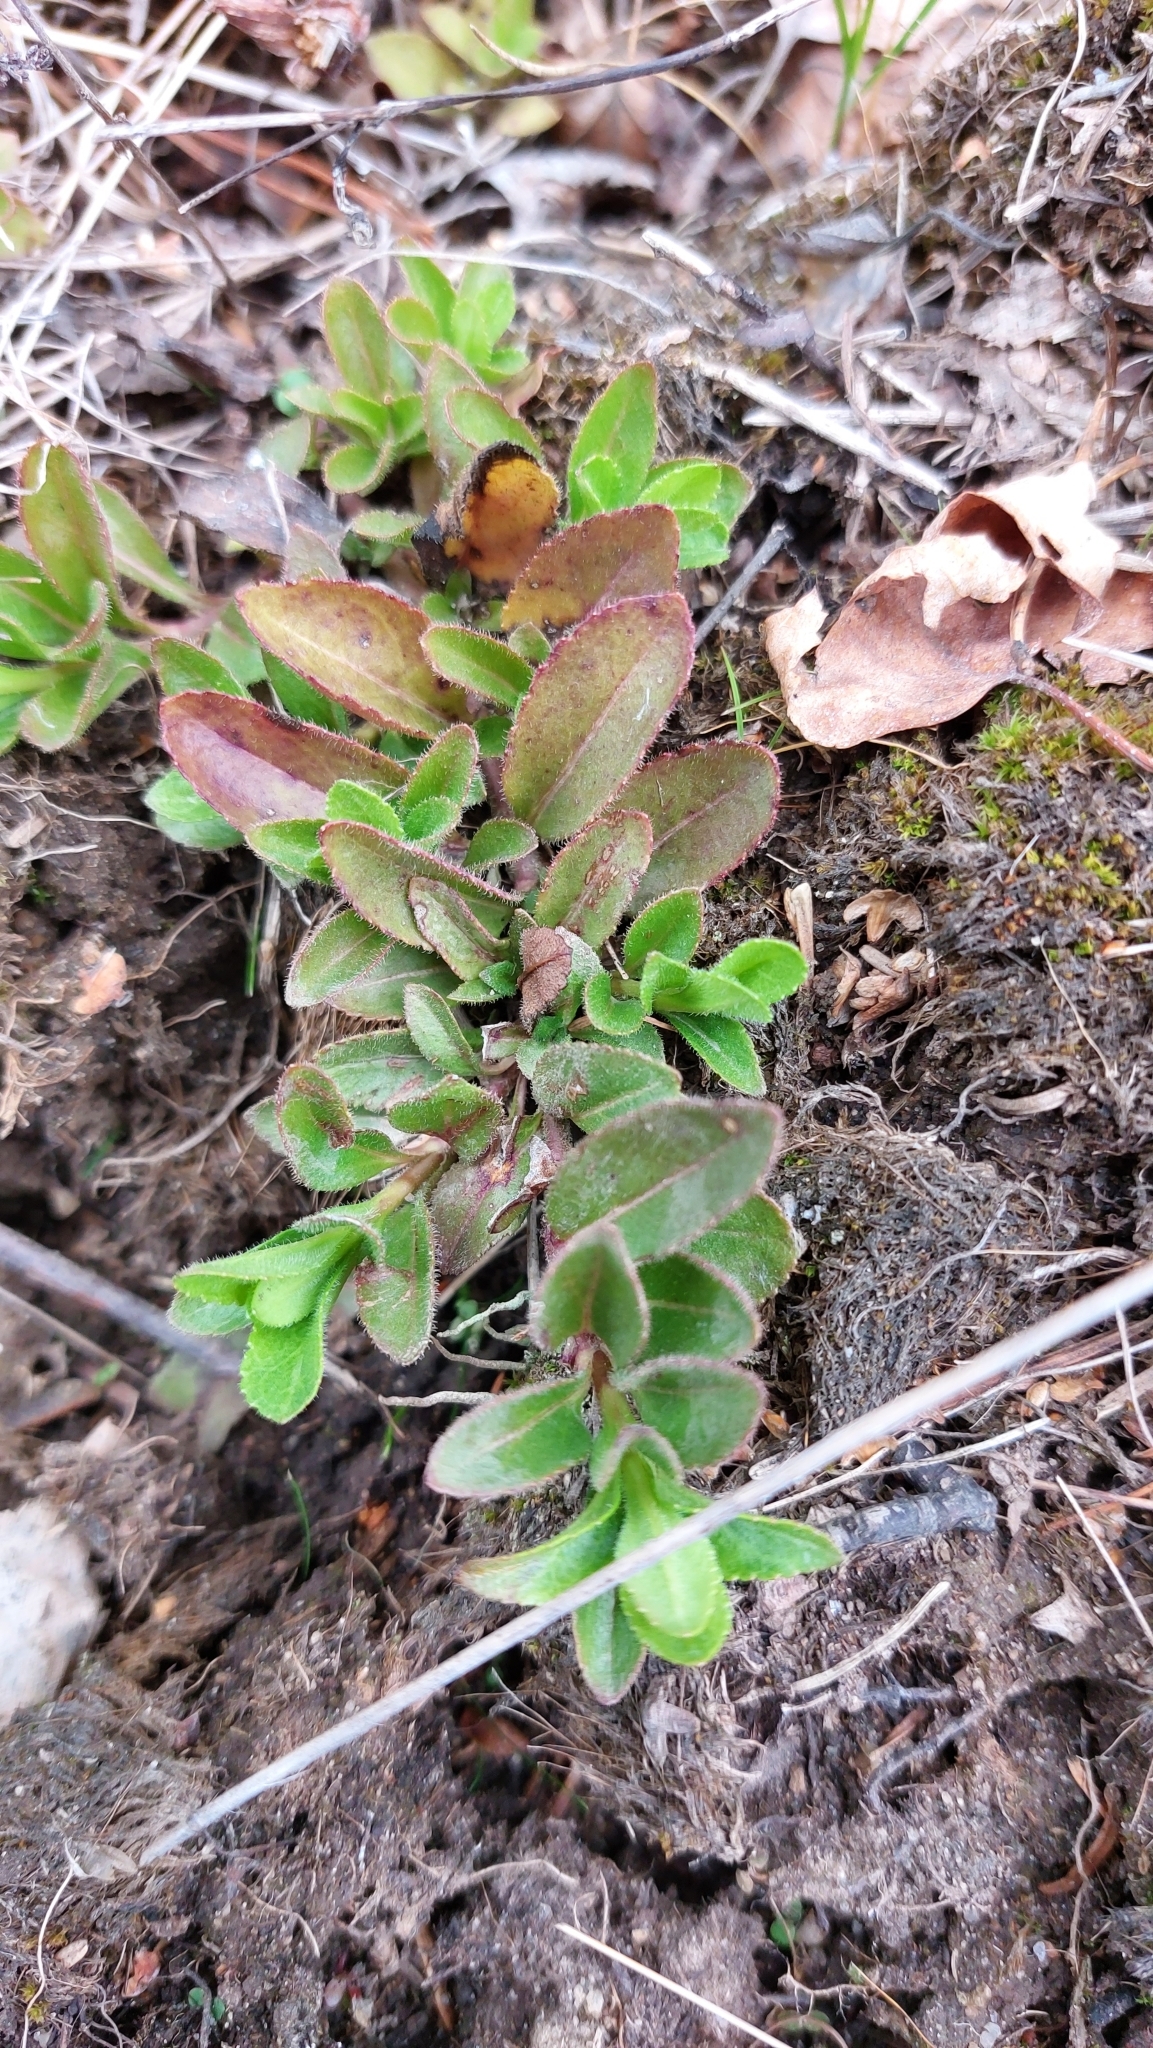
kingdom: Plantae
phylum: Tracheophyta
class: Magnoliopsida
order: Lamiales
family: Plantaginaceae
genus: Veronica
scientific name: Veronica officinalis
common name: Common speedwell
